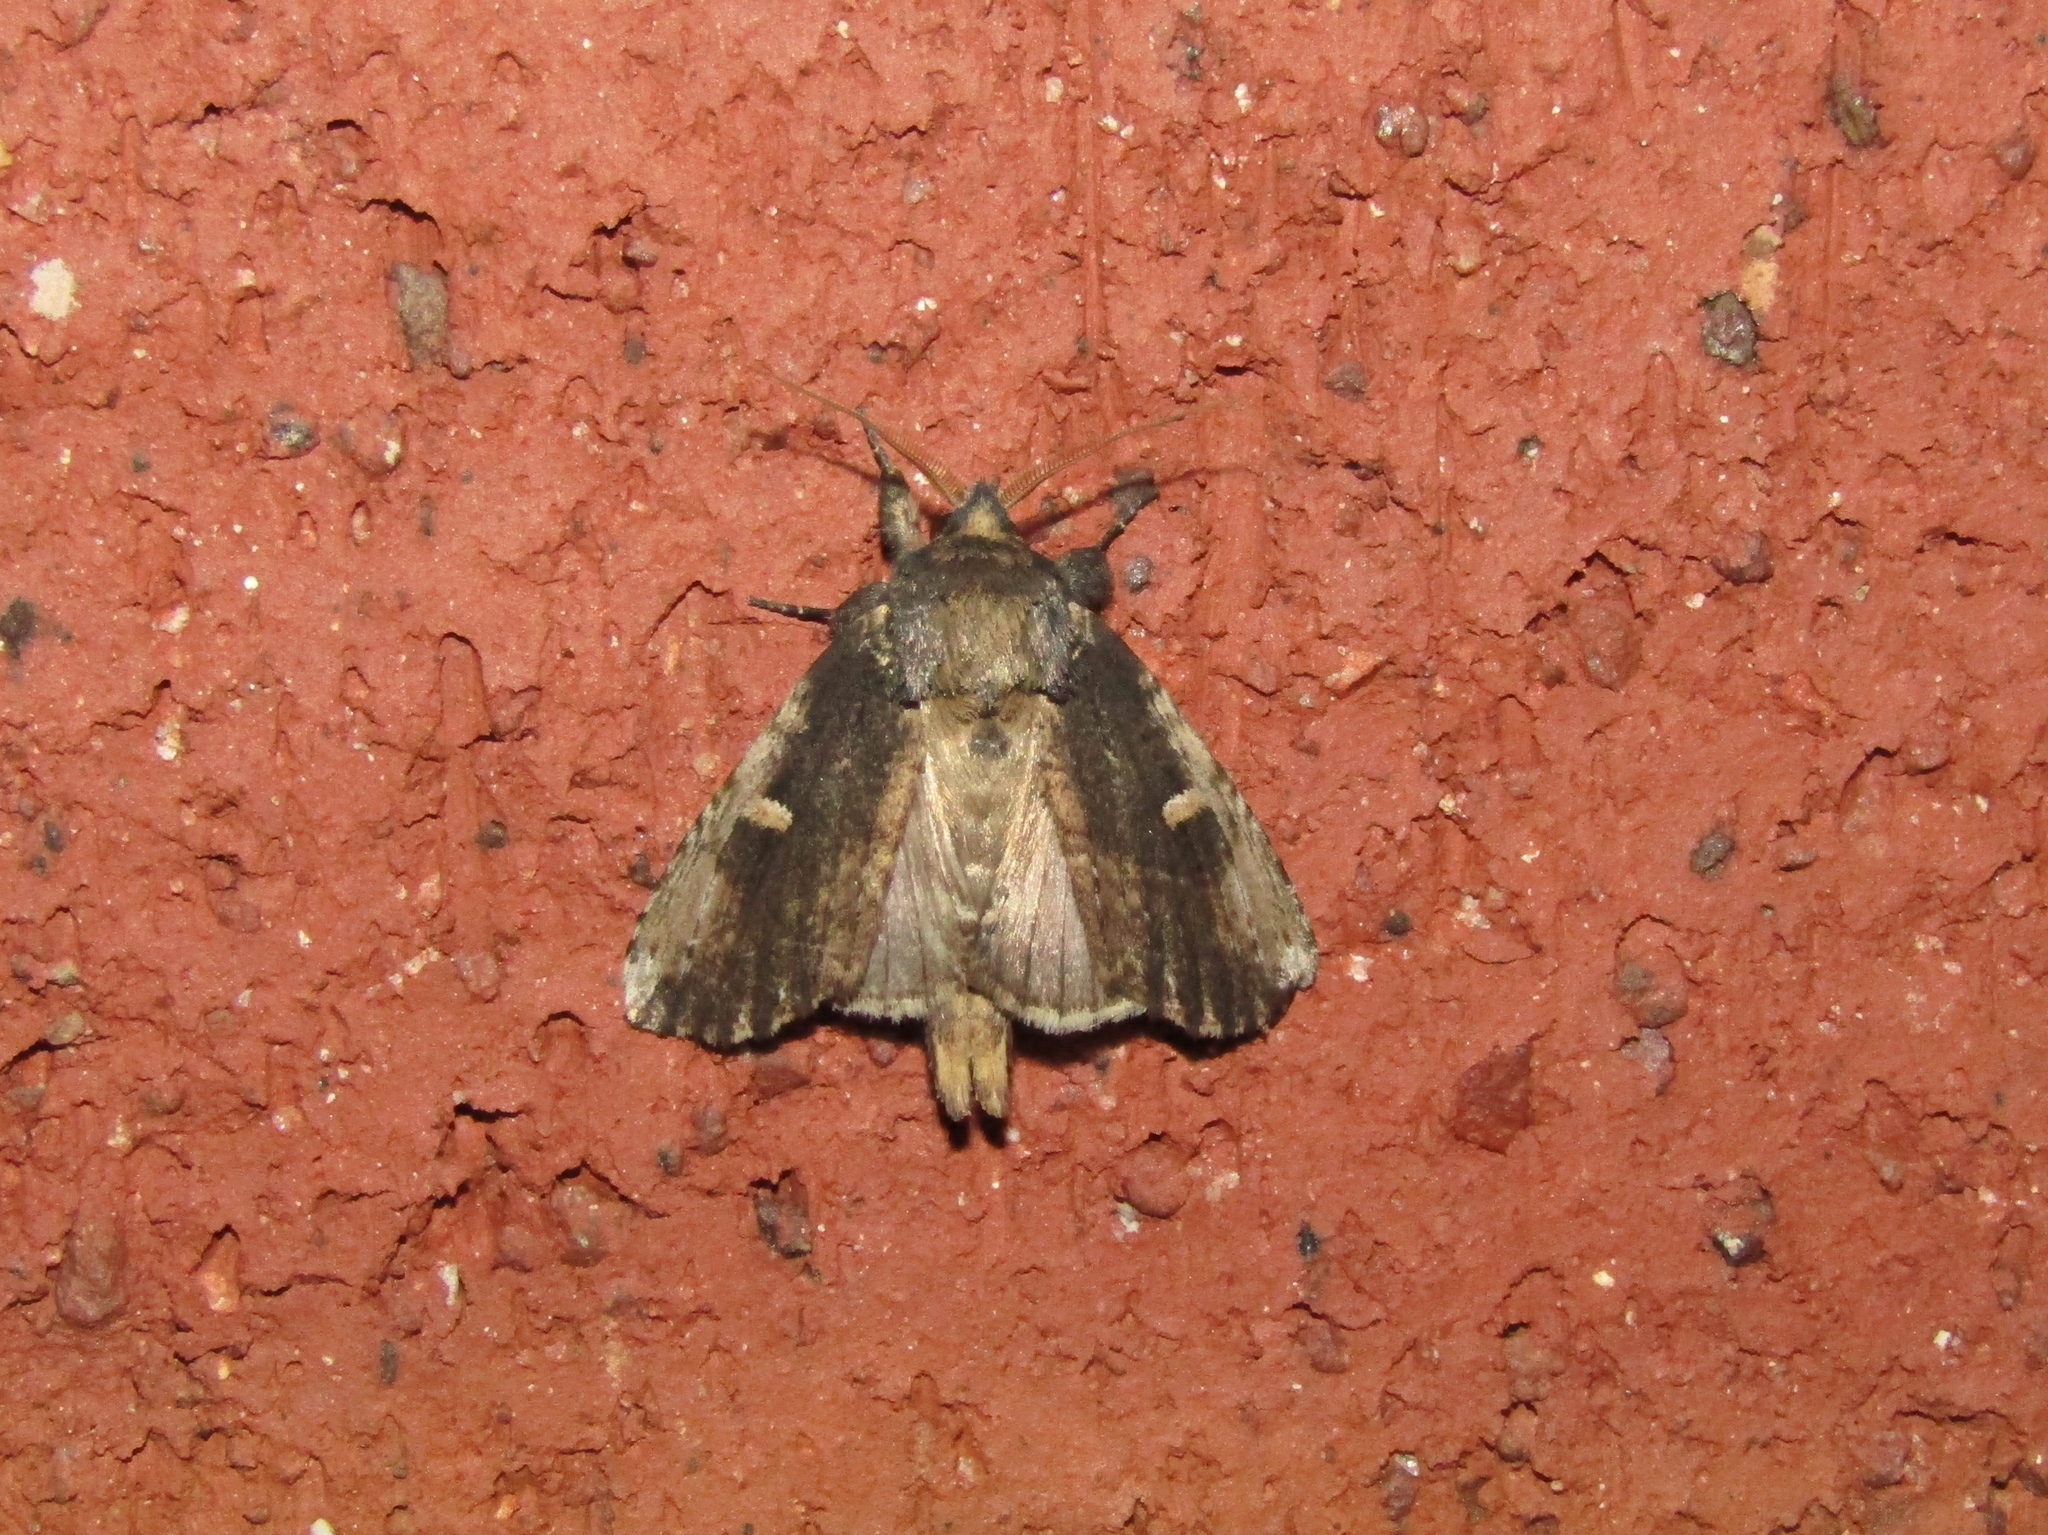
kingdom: Animalia
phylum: Arthropoda
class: Insecta
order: Lepidoptera
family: Notodontidae
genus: Schizura
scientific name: Schizura ipomaeae
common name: Morning-glory prominent
